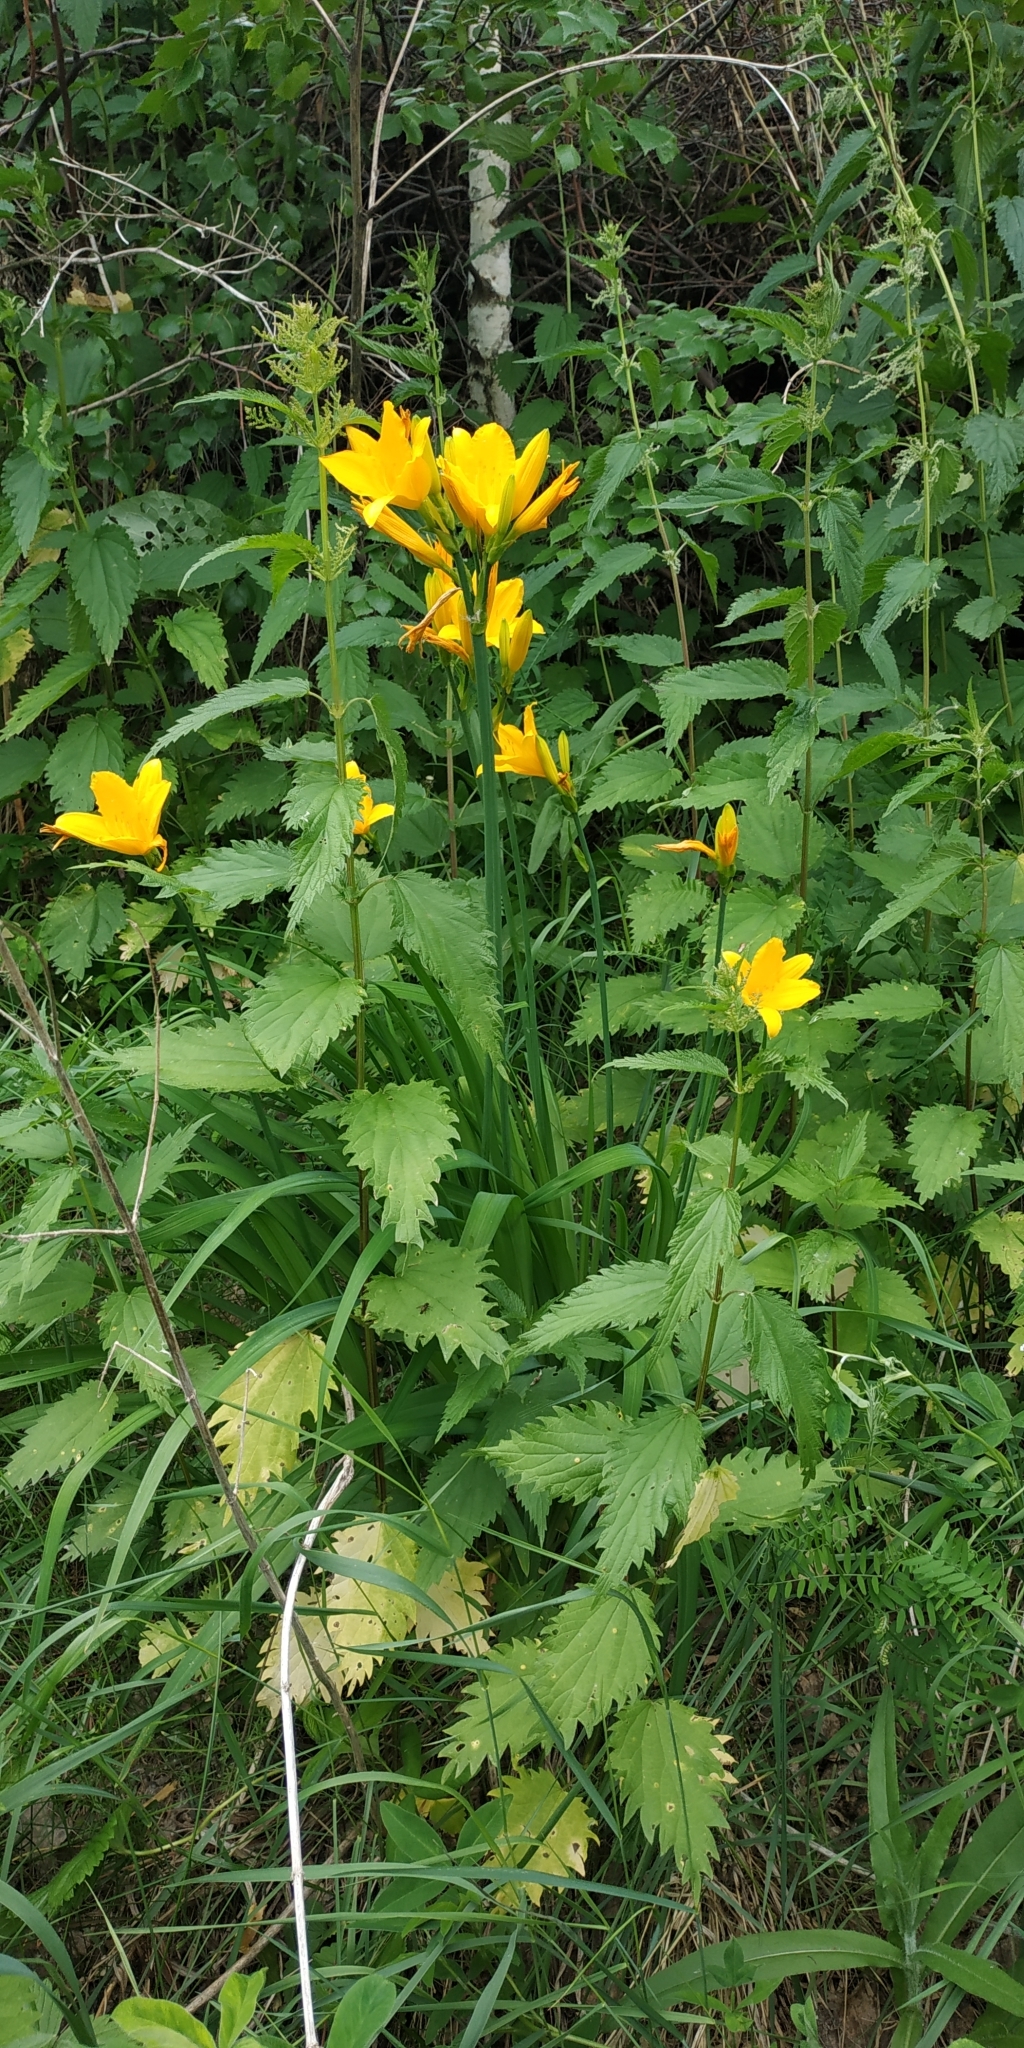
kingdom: Plantae
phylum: Tracheophyta
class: Liliopsida
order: Asparagales
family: Asphodelaceae
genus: Hemerocallis
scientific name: Hemerocallis minor
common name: Small daylily
